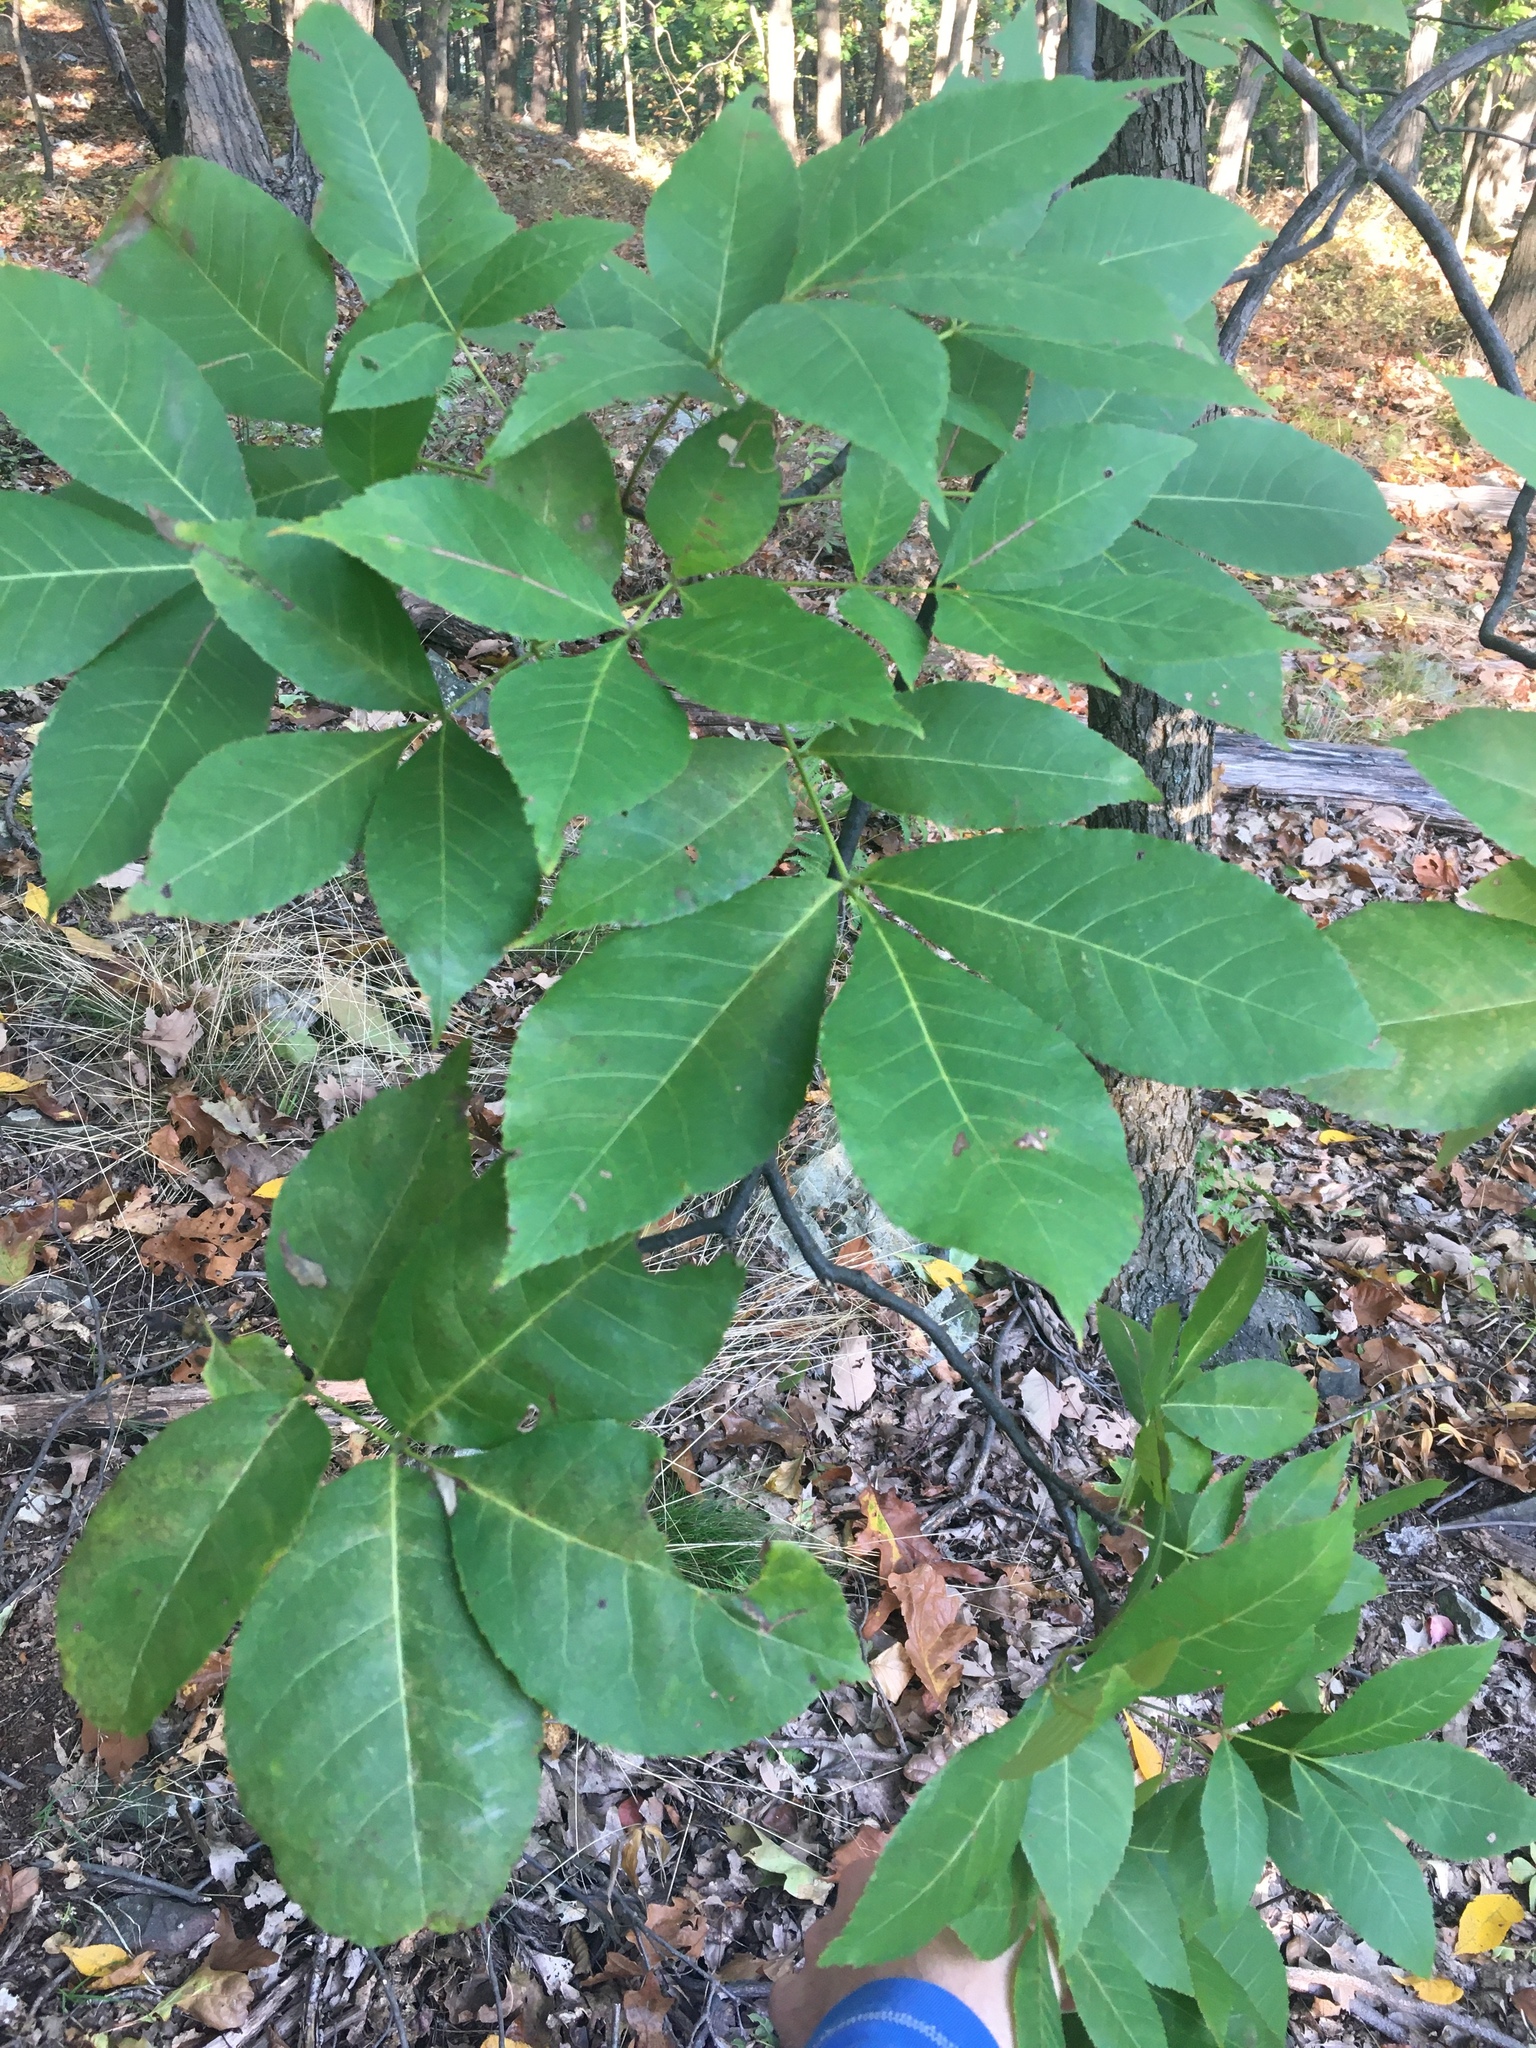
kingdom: Plantae
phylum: Tracheophyta
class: Magnoliopsida
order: Fagales
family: Juglandaceae
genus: Carya
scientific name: Carya glabra
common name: Pignut hickory
